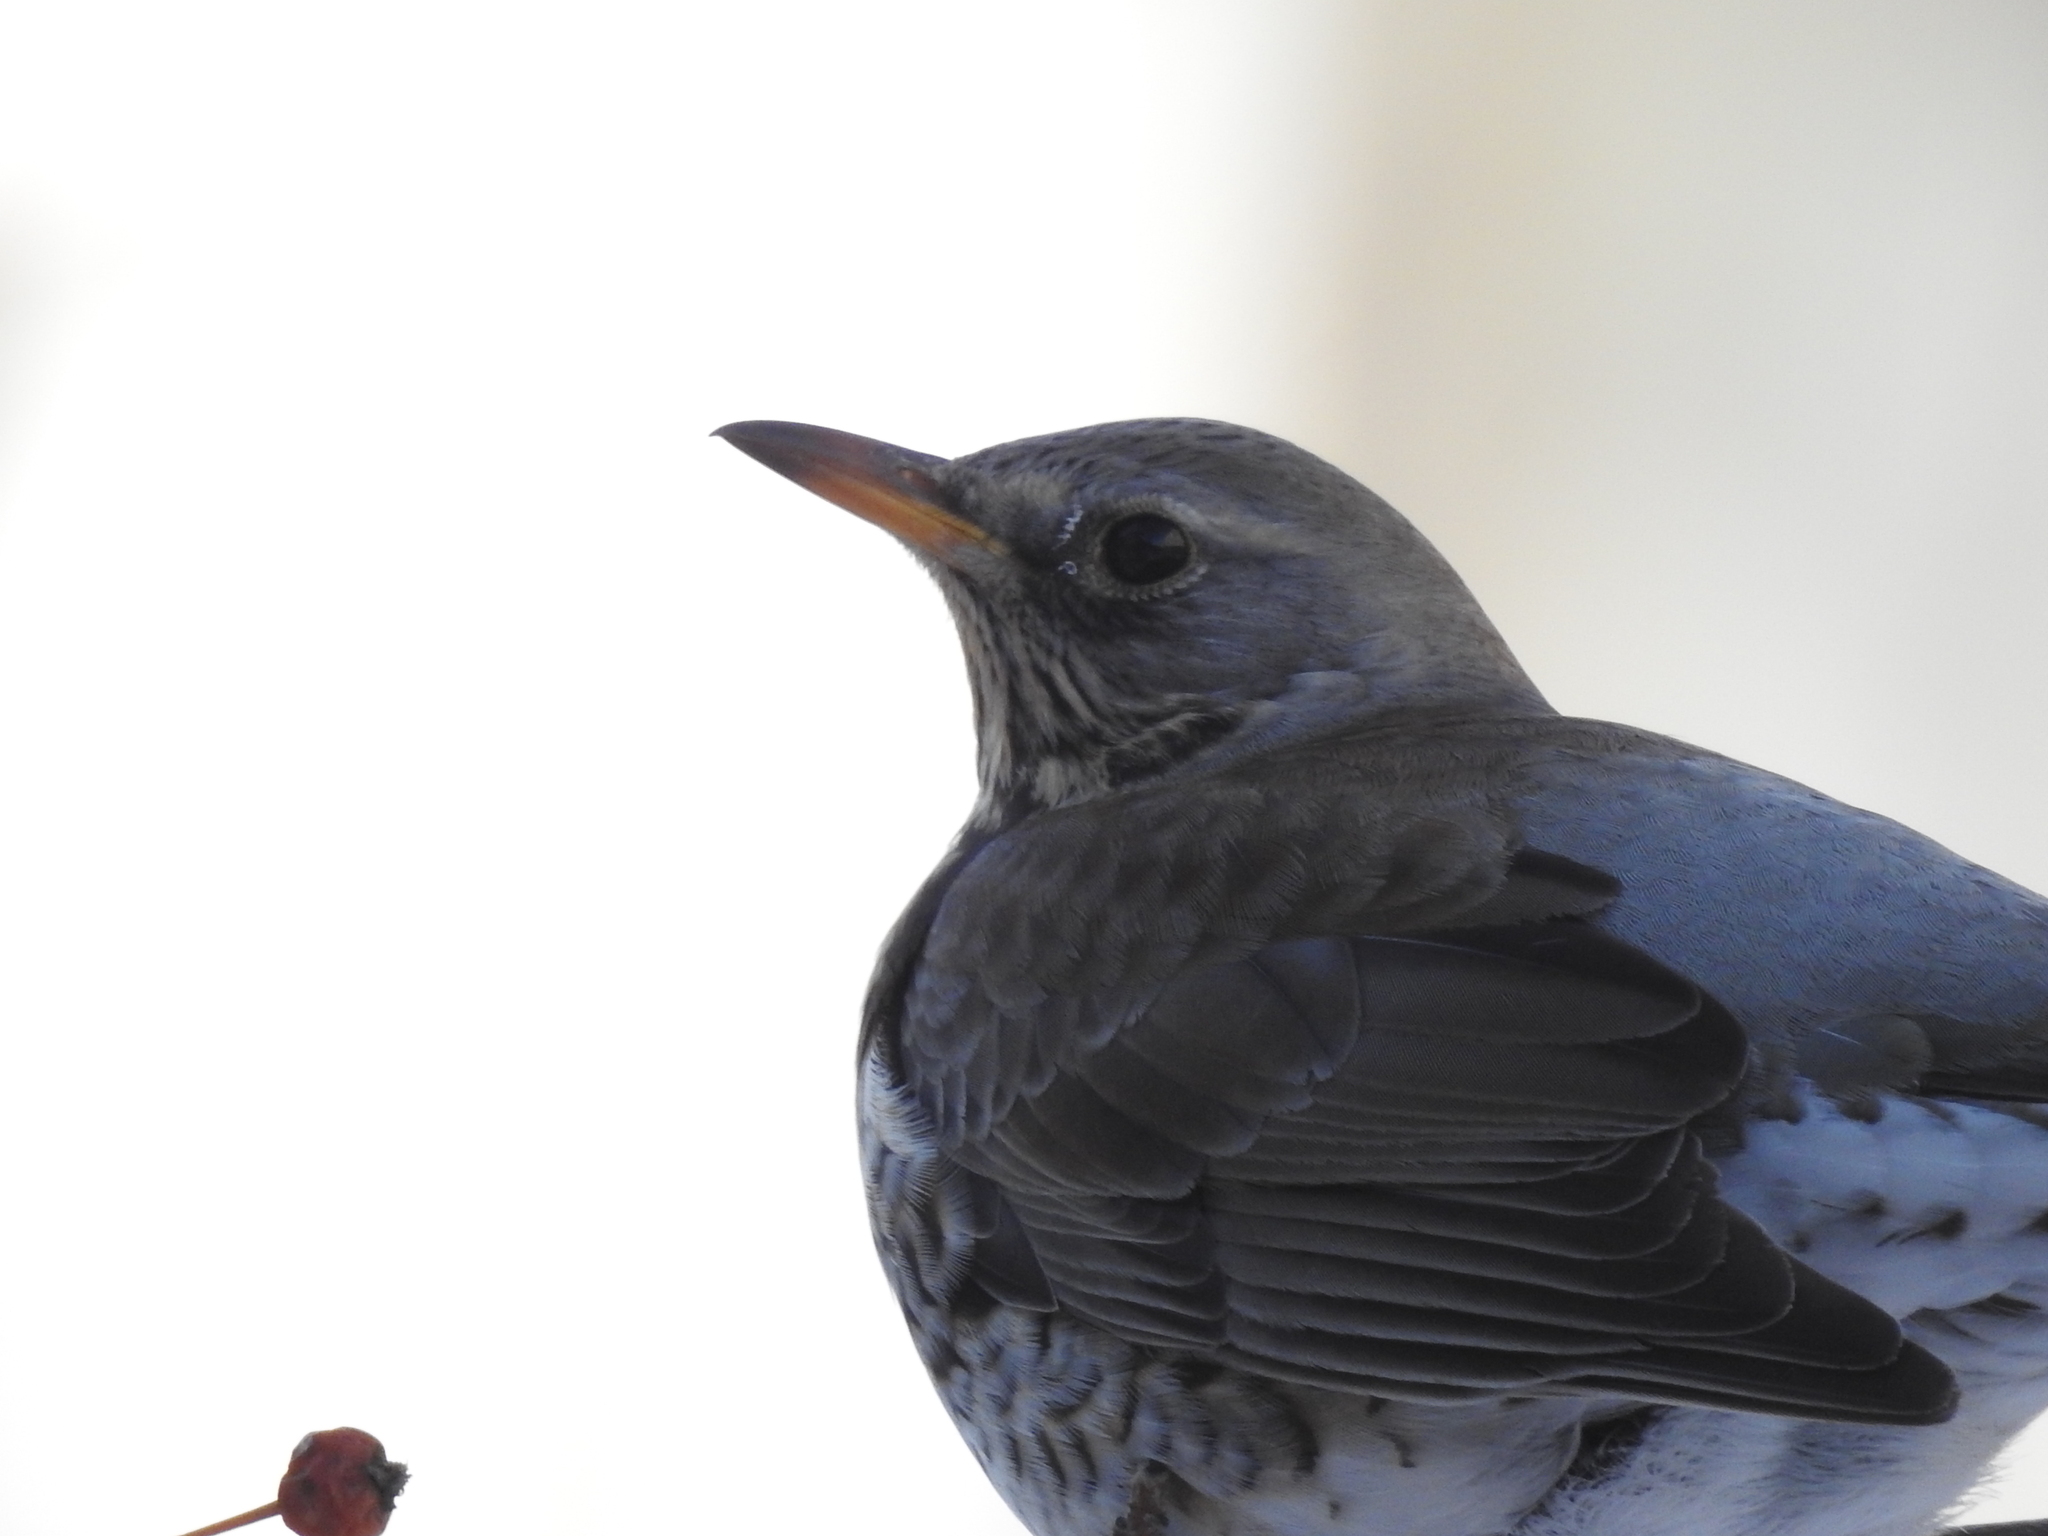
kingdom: Animalia
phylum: Chordata
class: Aves
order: Passeriformes
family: Turdidae
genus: Turdus
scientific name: Turdus pilaris
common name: Fieldfare
